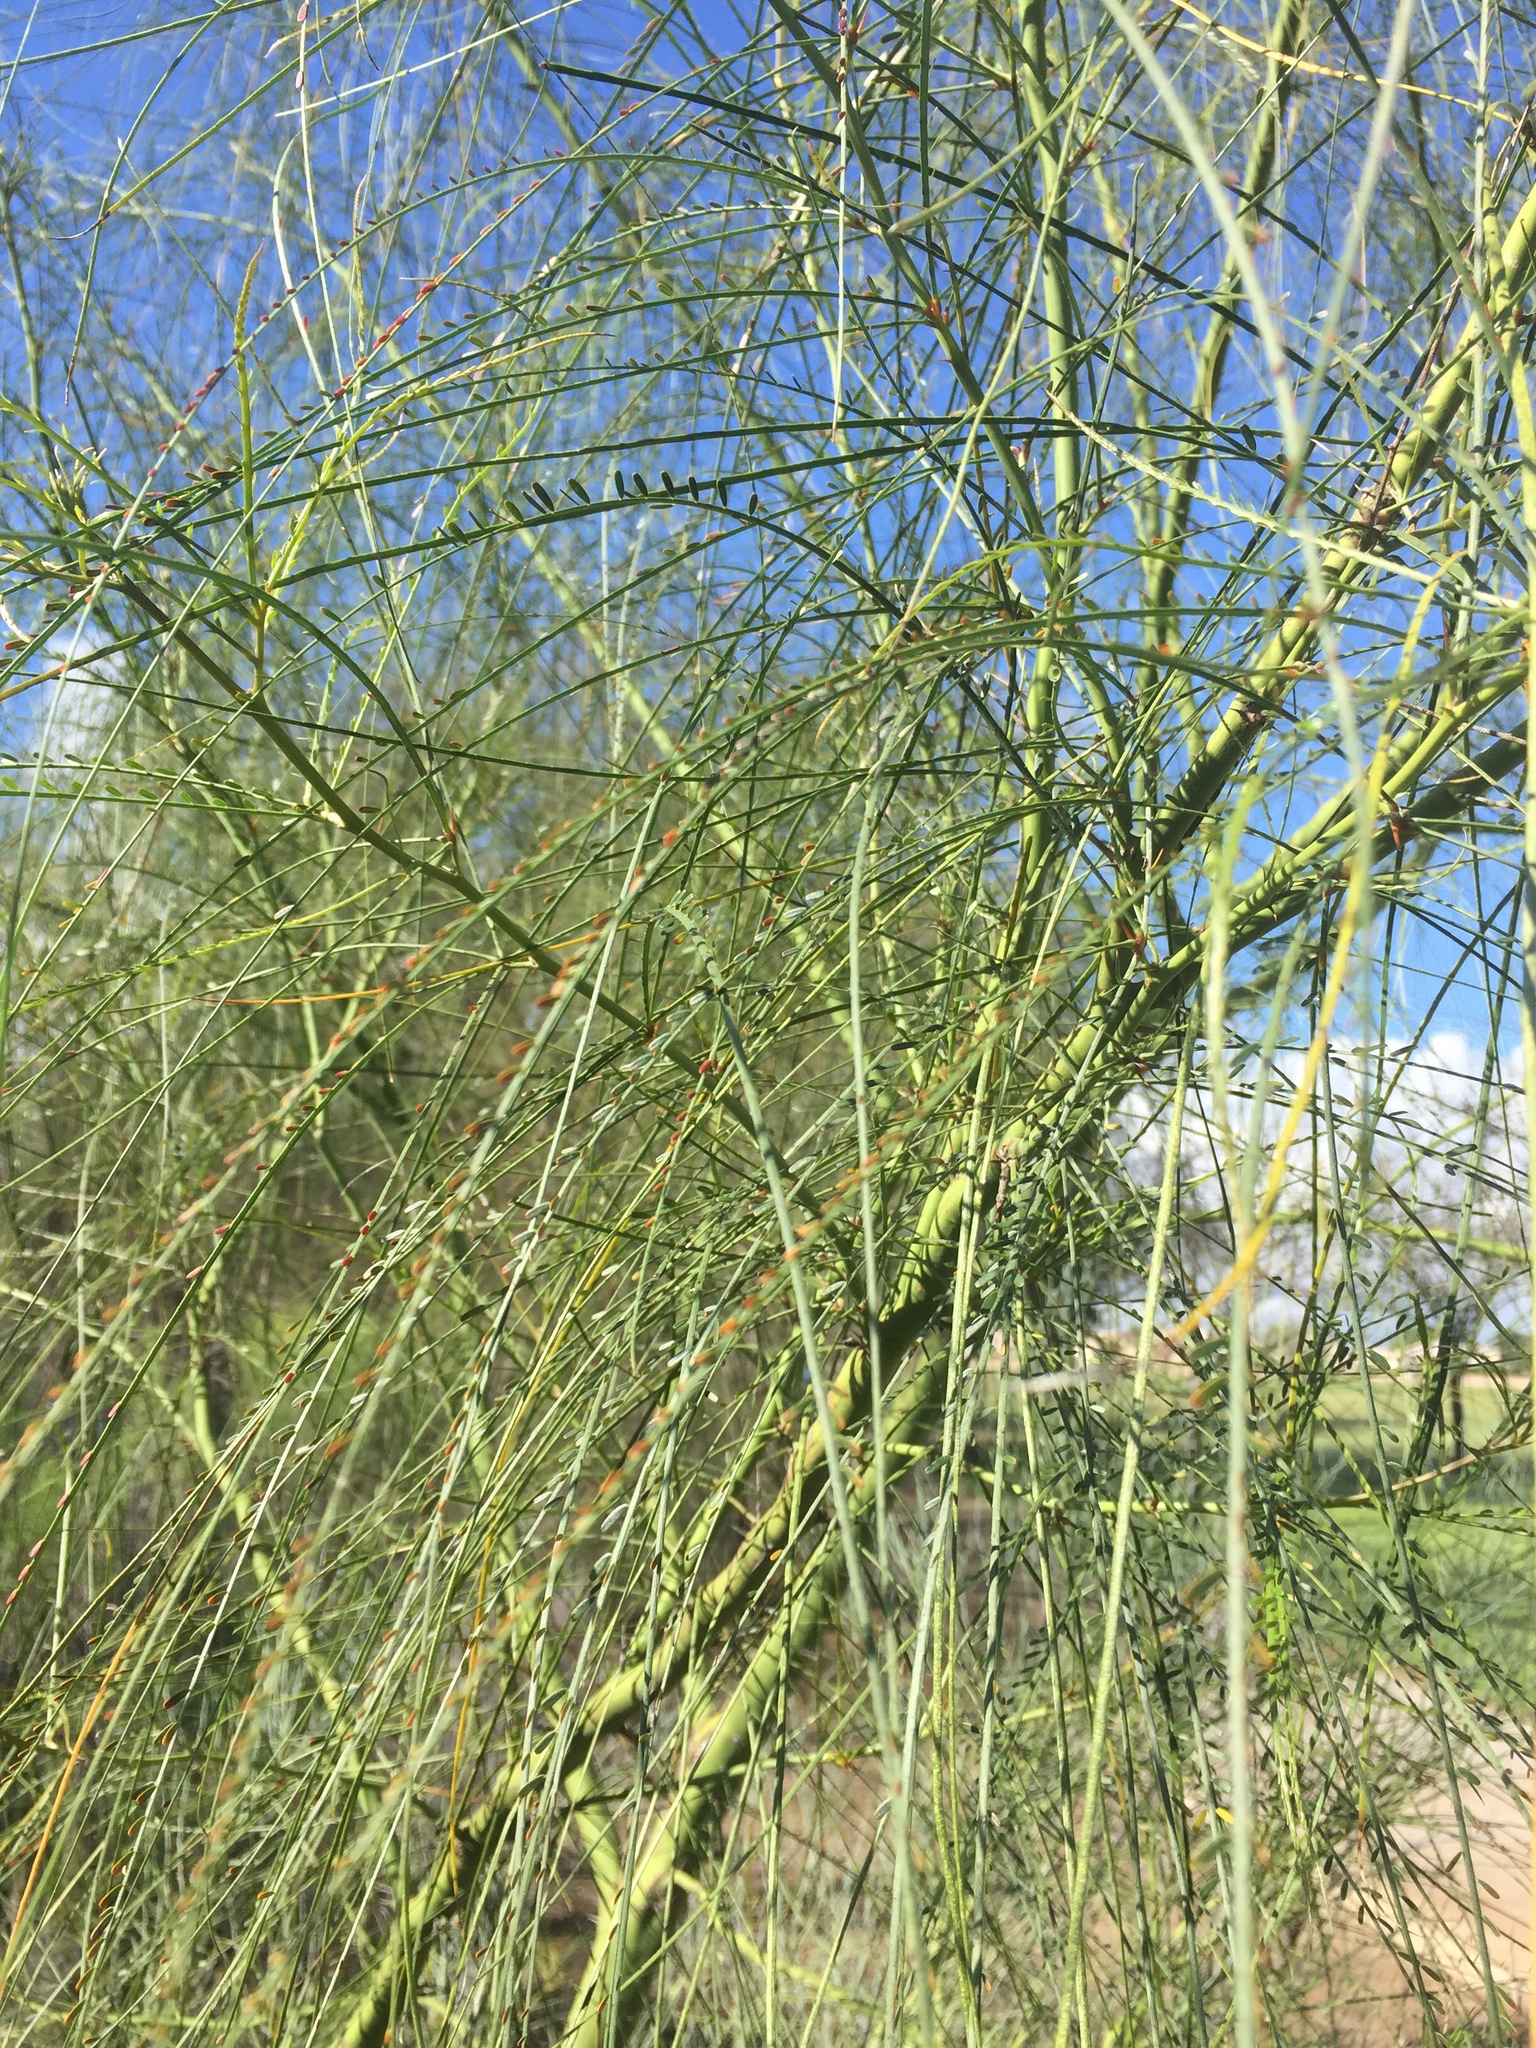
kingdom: Plantae
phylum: Tracheophyta
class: Magnoliopsida
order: Fabales
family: Fabaceae
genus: Parkinsonia
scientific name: Parkinsonia aculeata
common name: Jerusalem thorn
